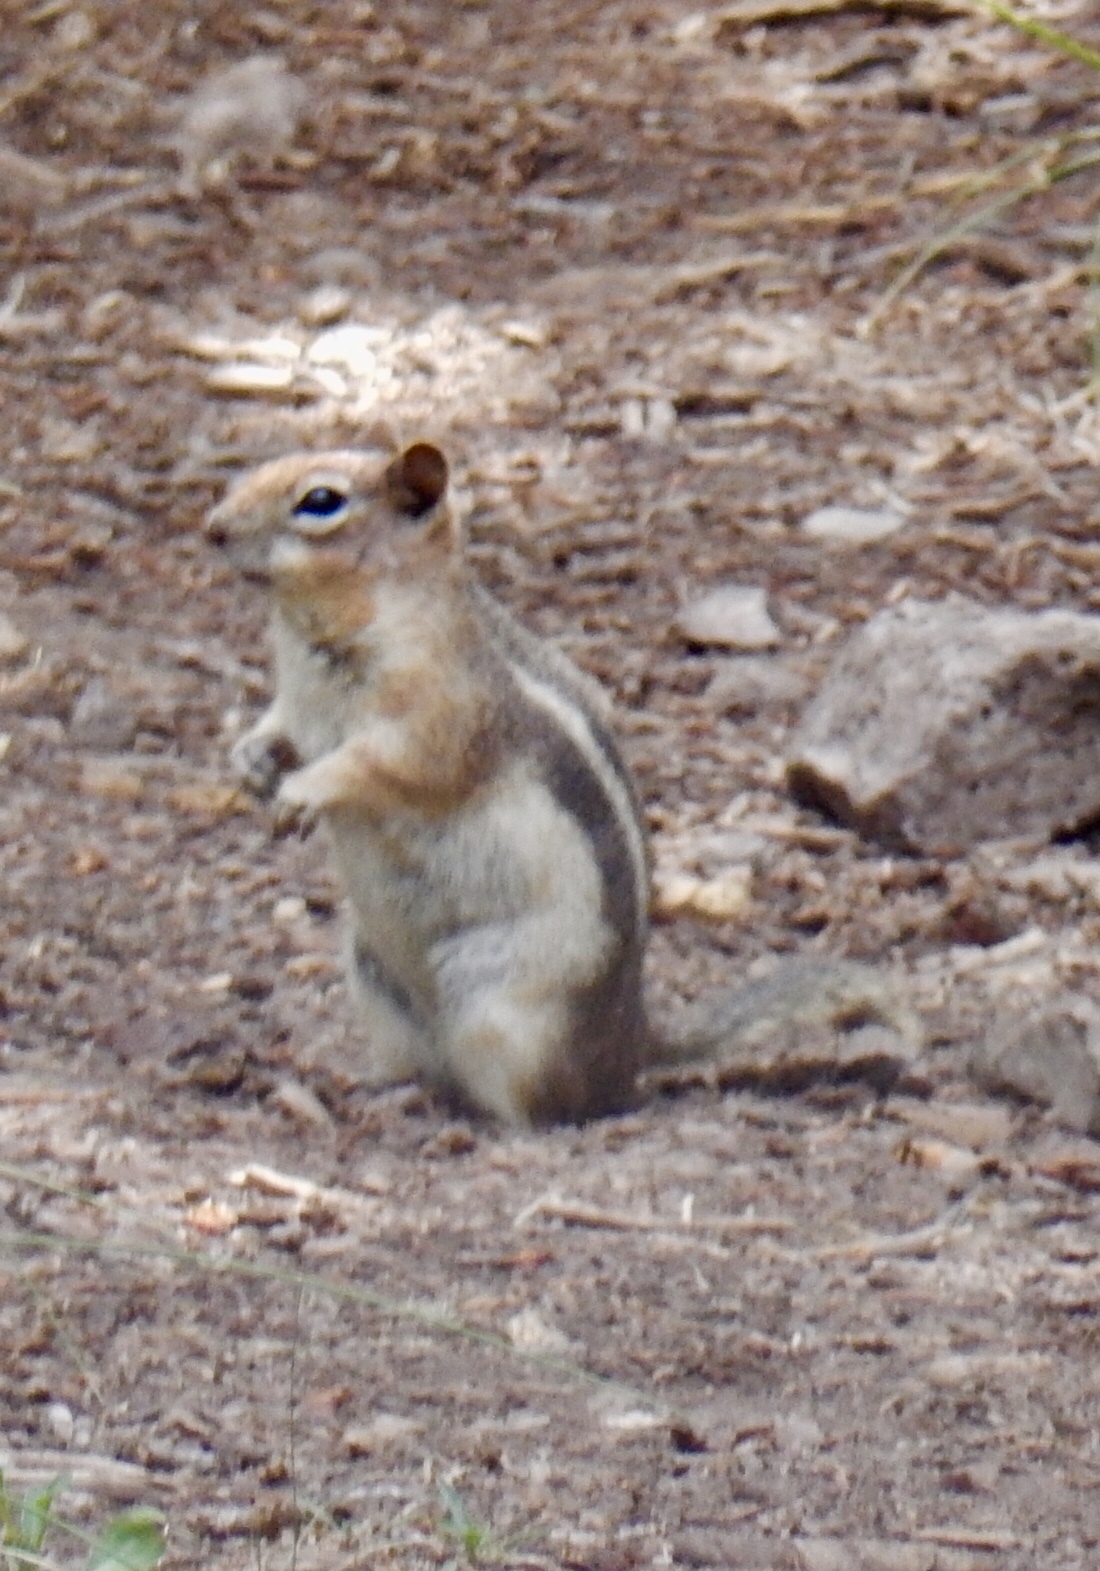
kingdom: Animalia
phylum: Chordata
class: Mammalia
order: Rodentia
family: Sciuridae
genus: Callospermophilus
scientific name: Callospermophilus lateralis
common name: Golden-mantled ground squirrel
